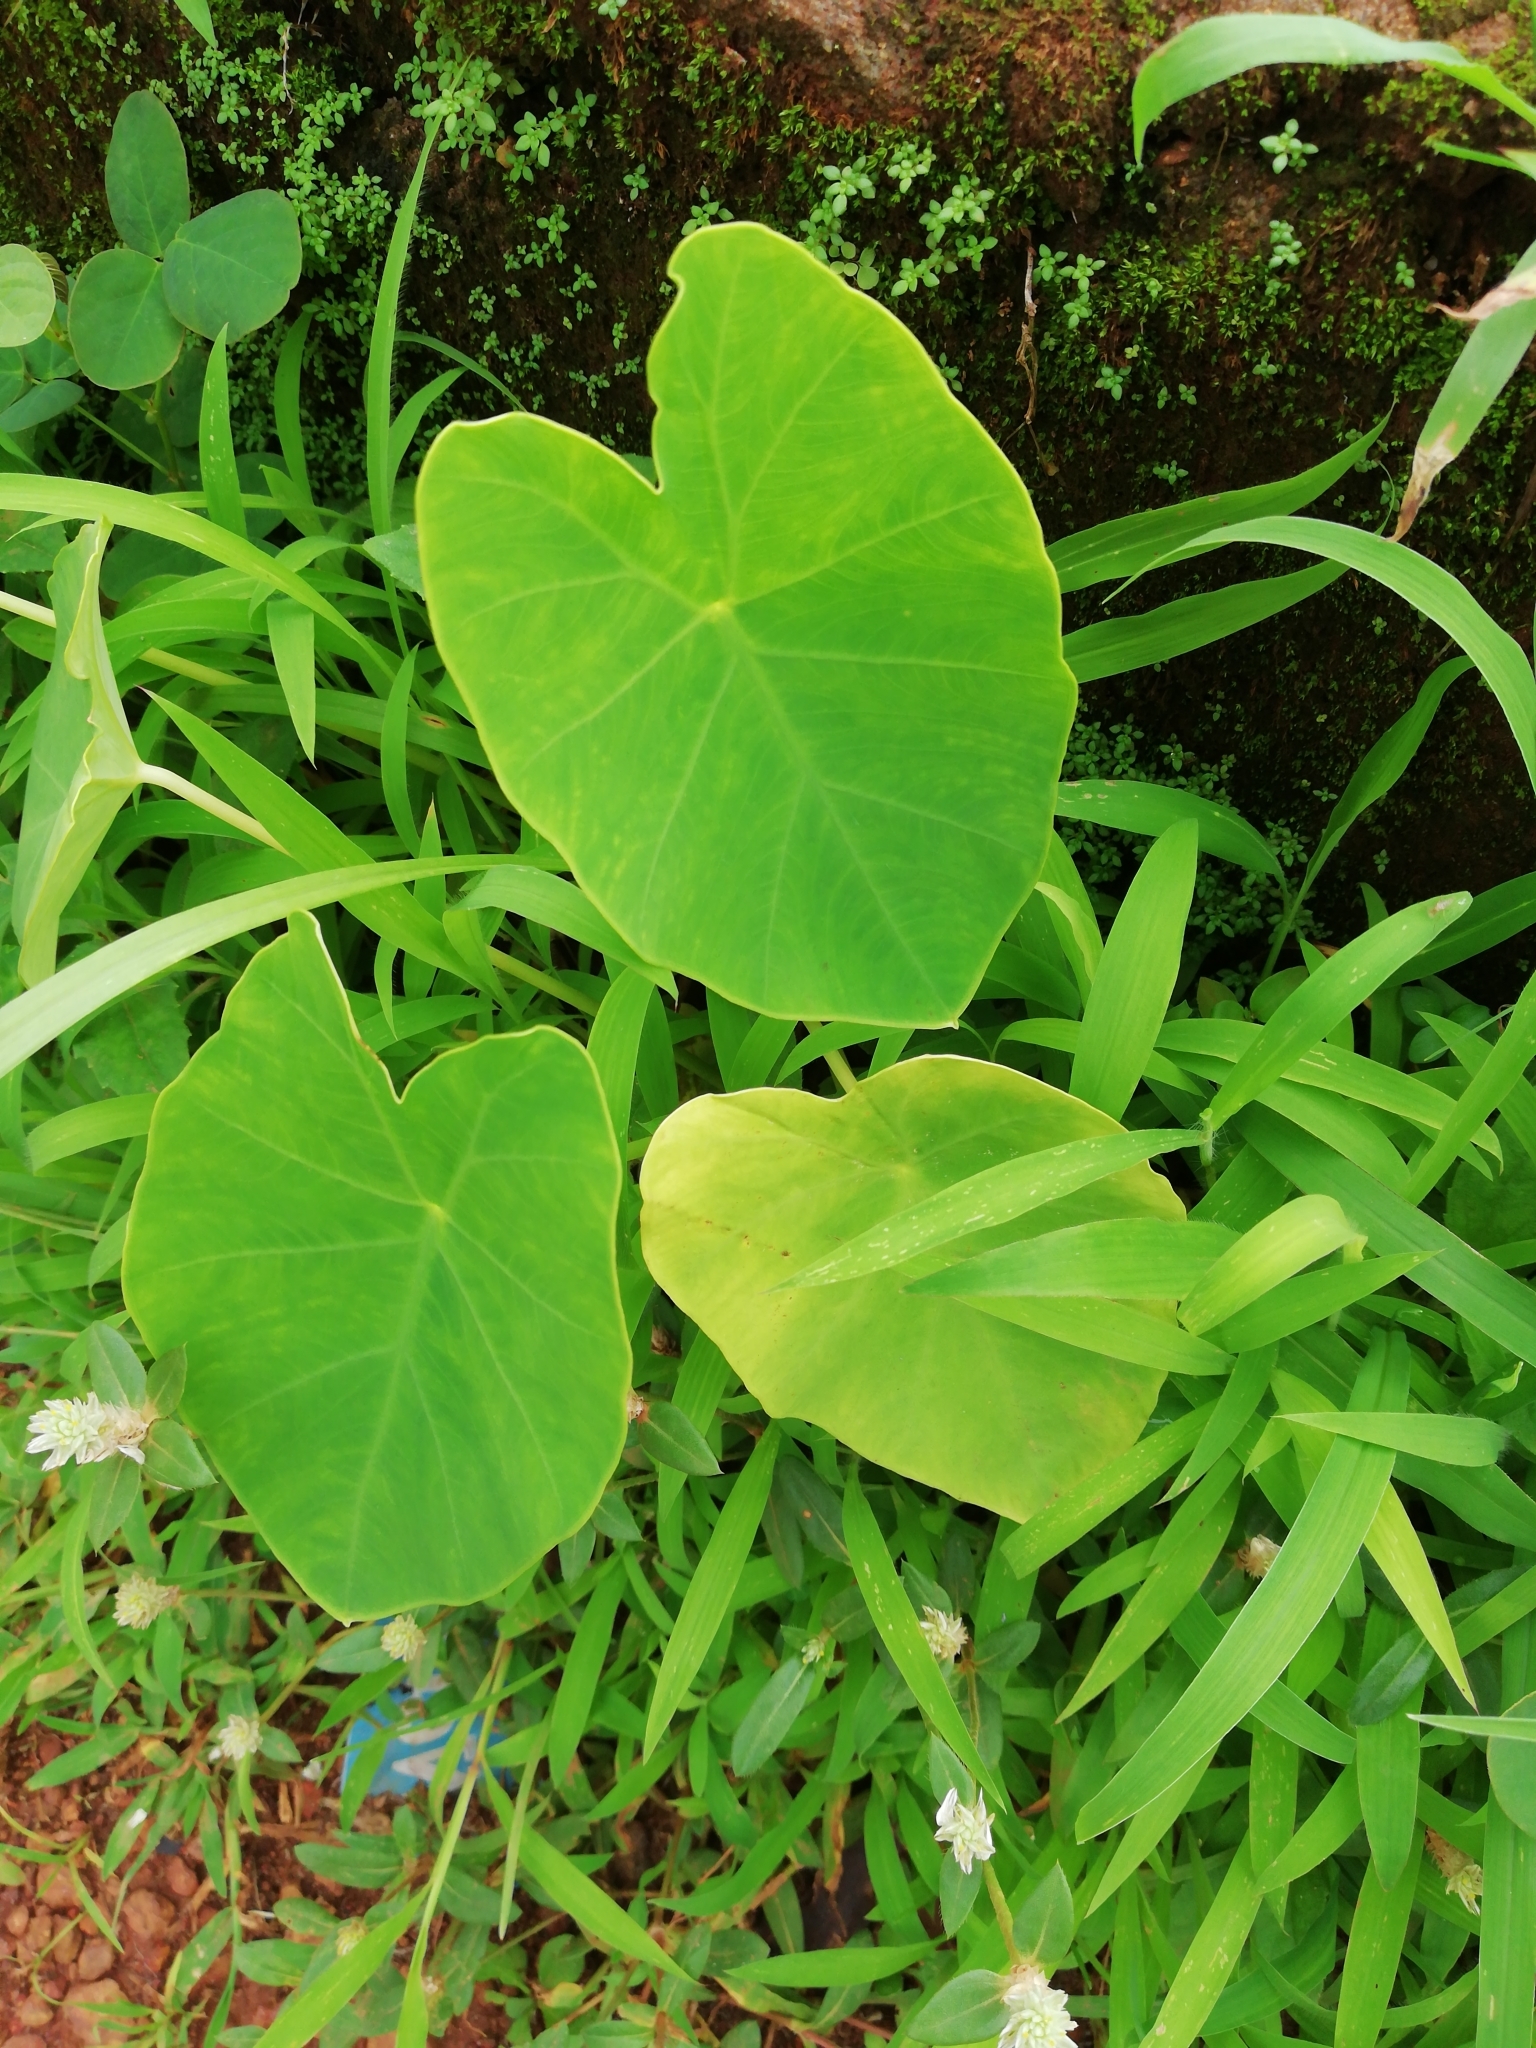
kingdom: Plantae
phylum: Tracheophyta
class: Liliopsida
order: Alismatales
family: Araceae
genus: Colocasia
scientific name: Colocasia esculenta
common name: Taro
